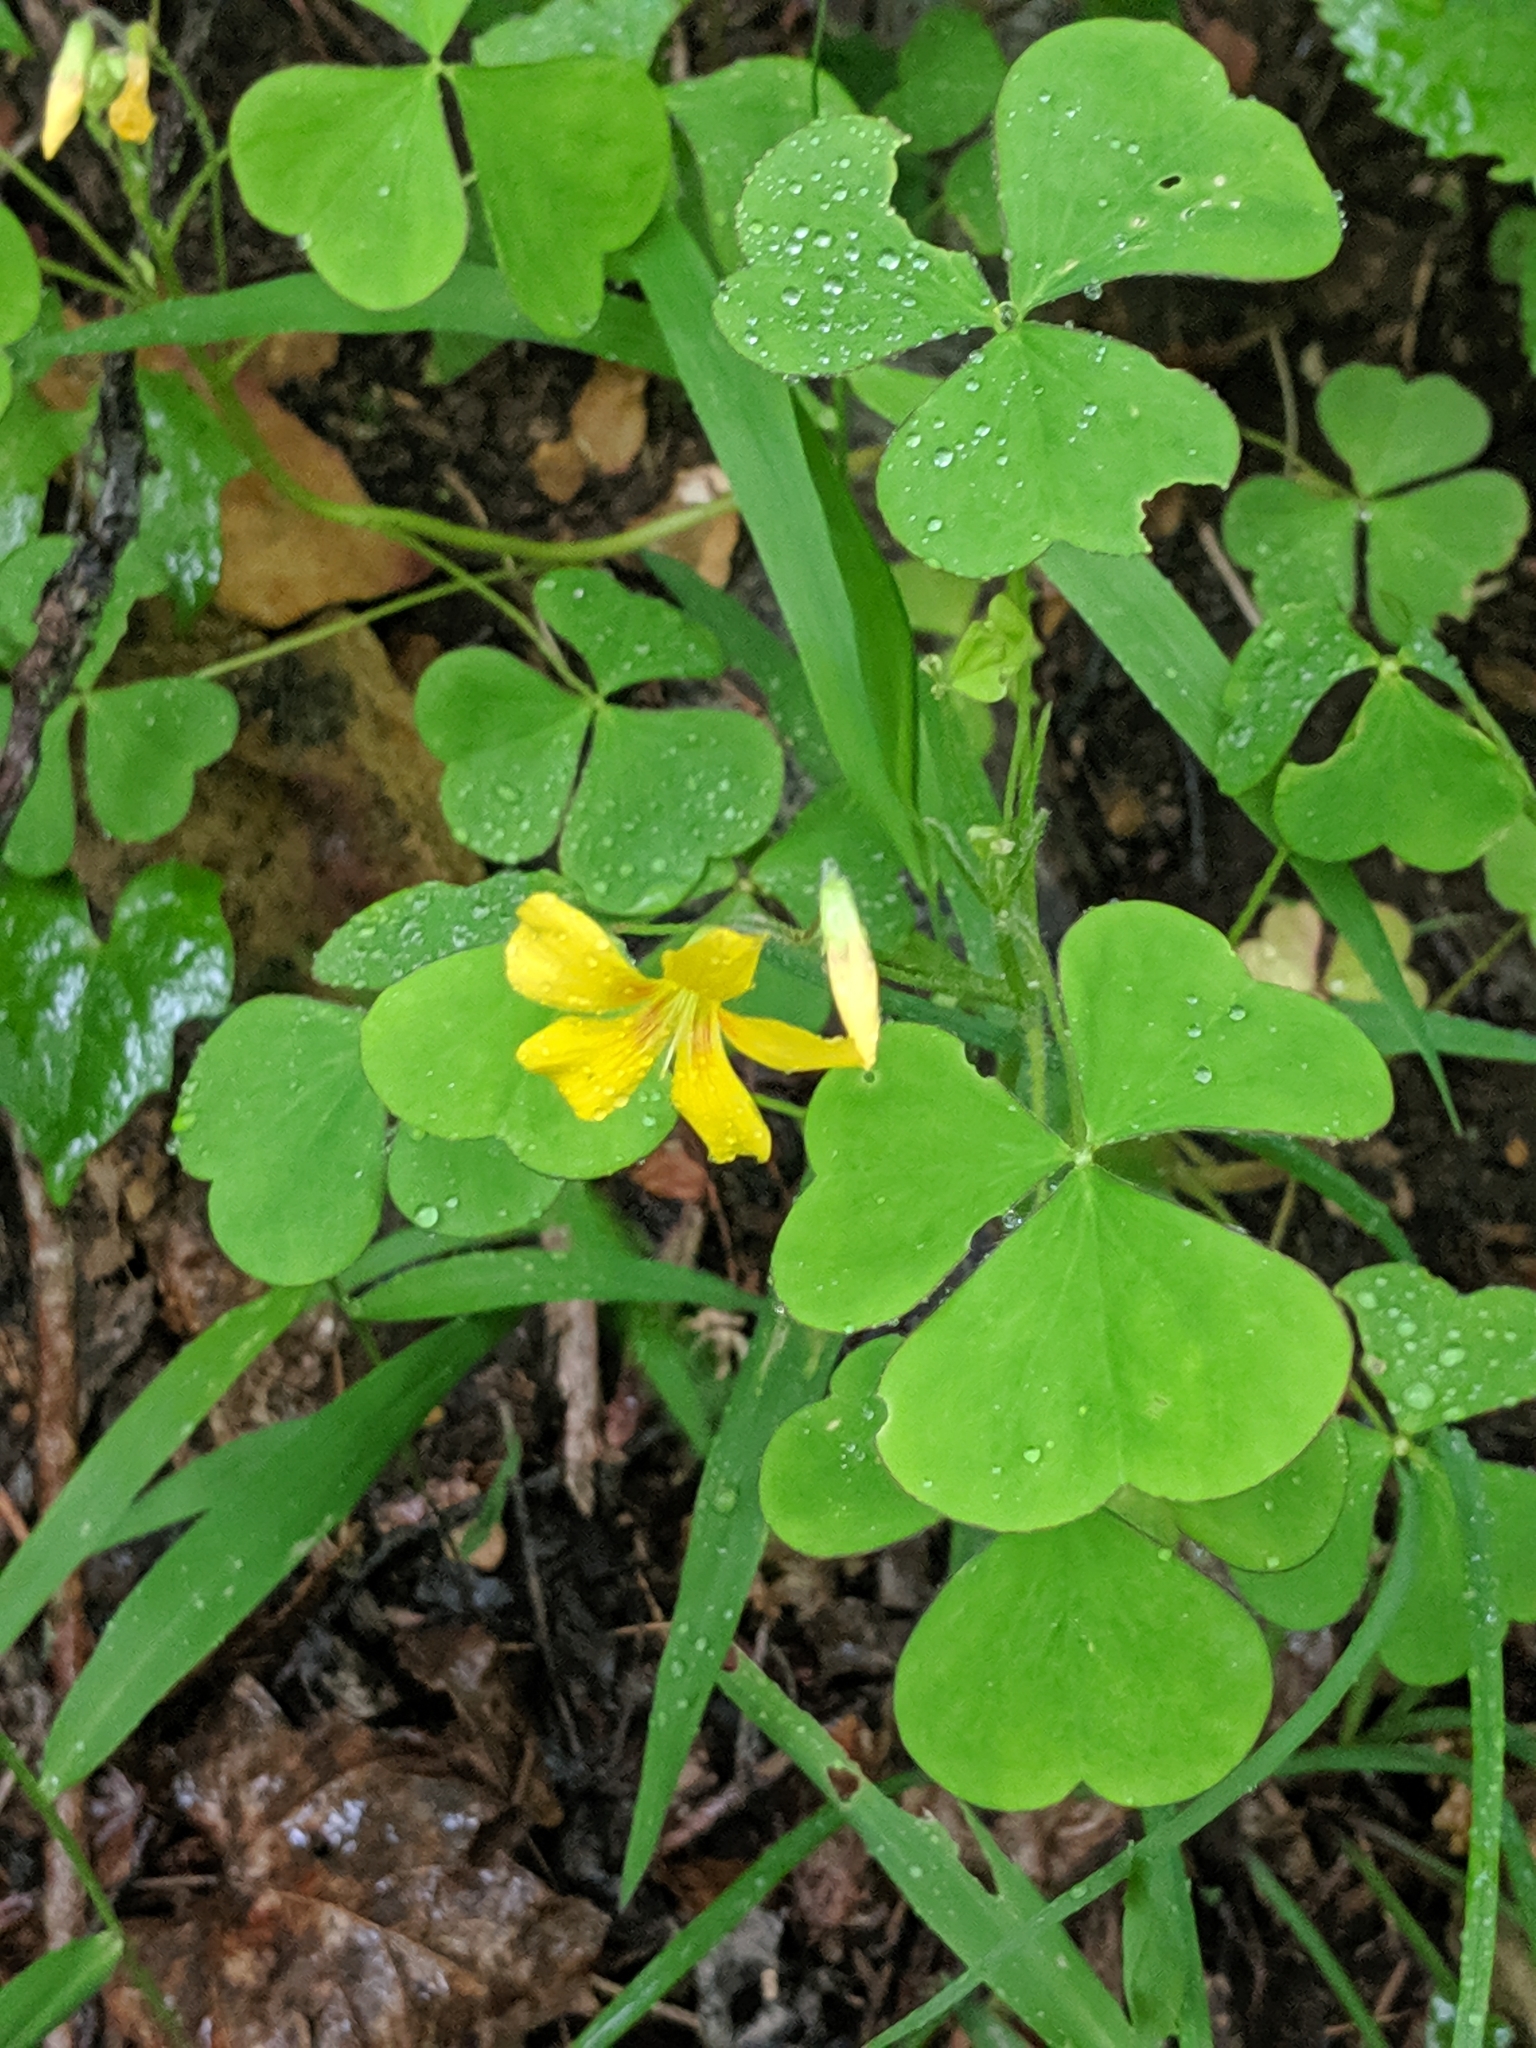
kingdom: Plantae
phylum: Tracheophyta
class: Magnoliopsida
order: Oxalidales
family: Oxalidaceae
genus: Oxalis
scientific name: Oxalis grandis
